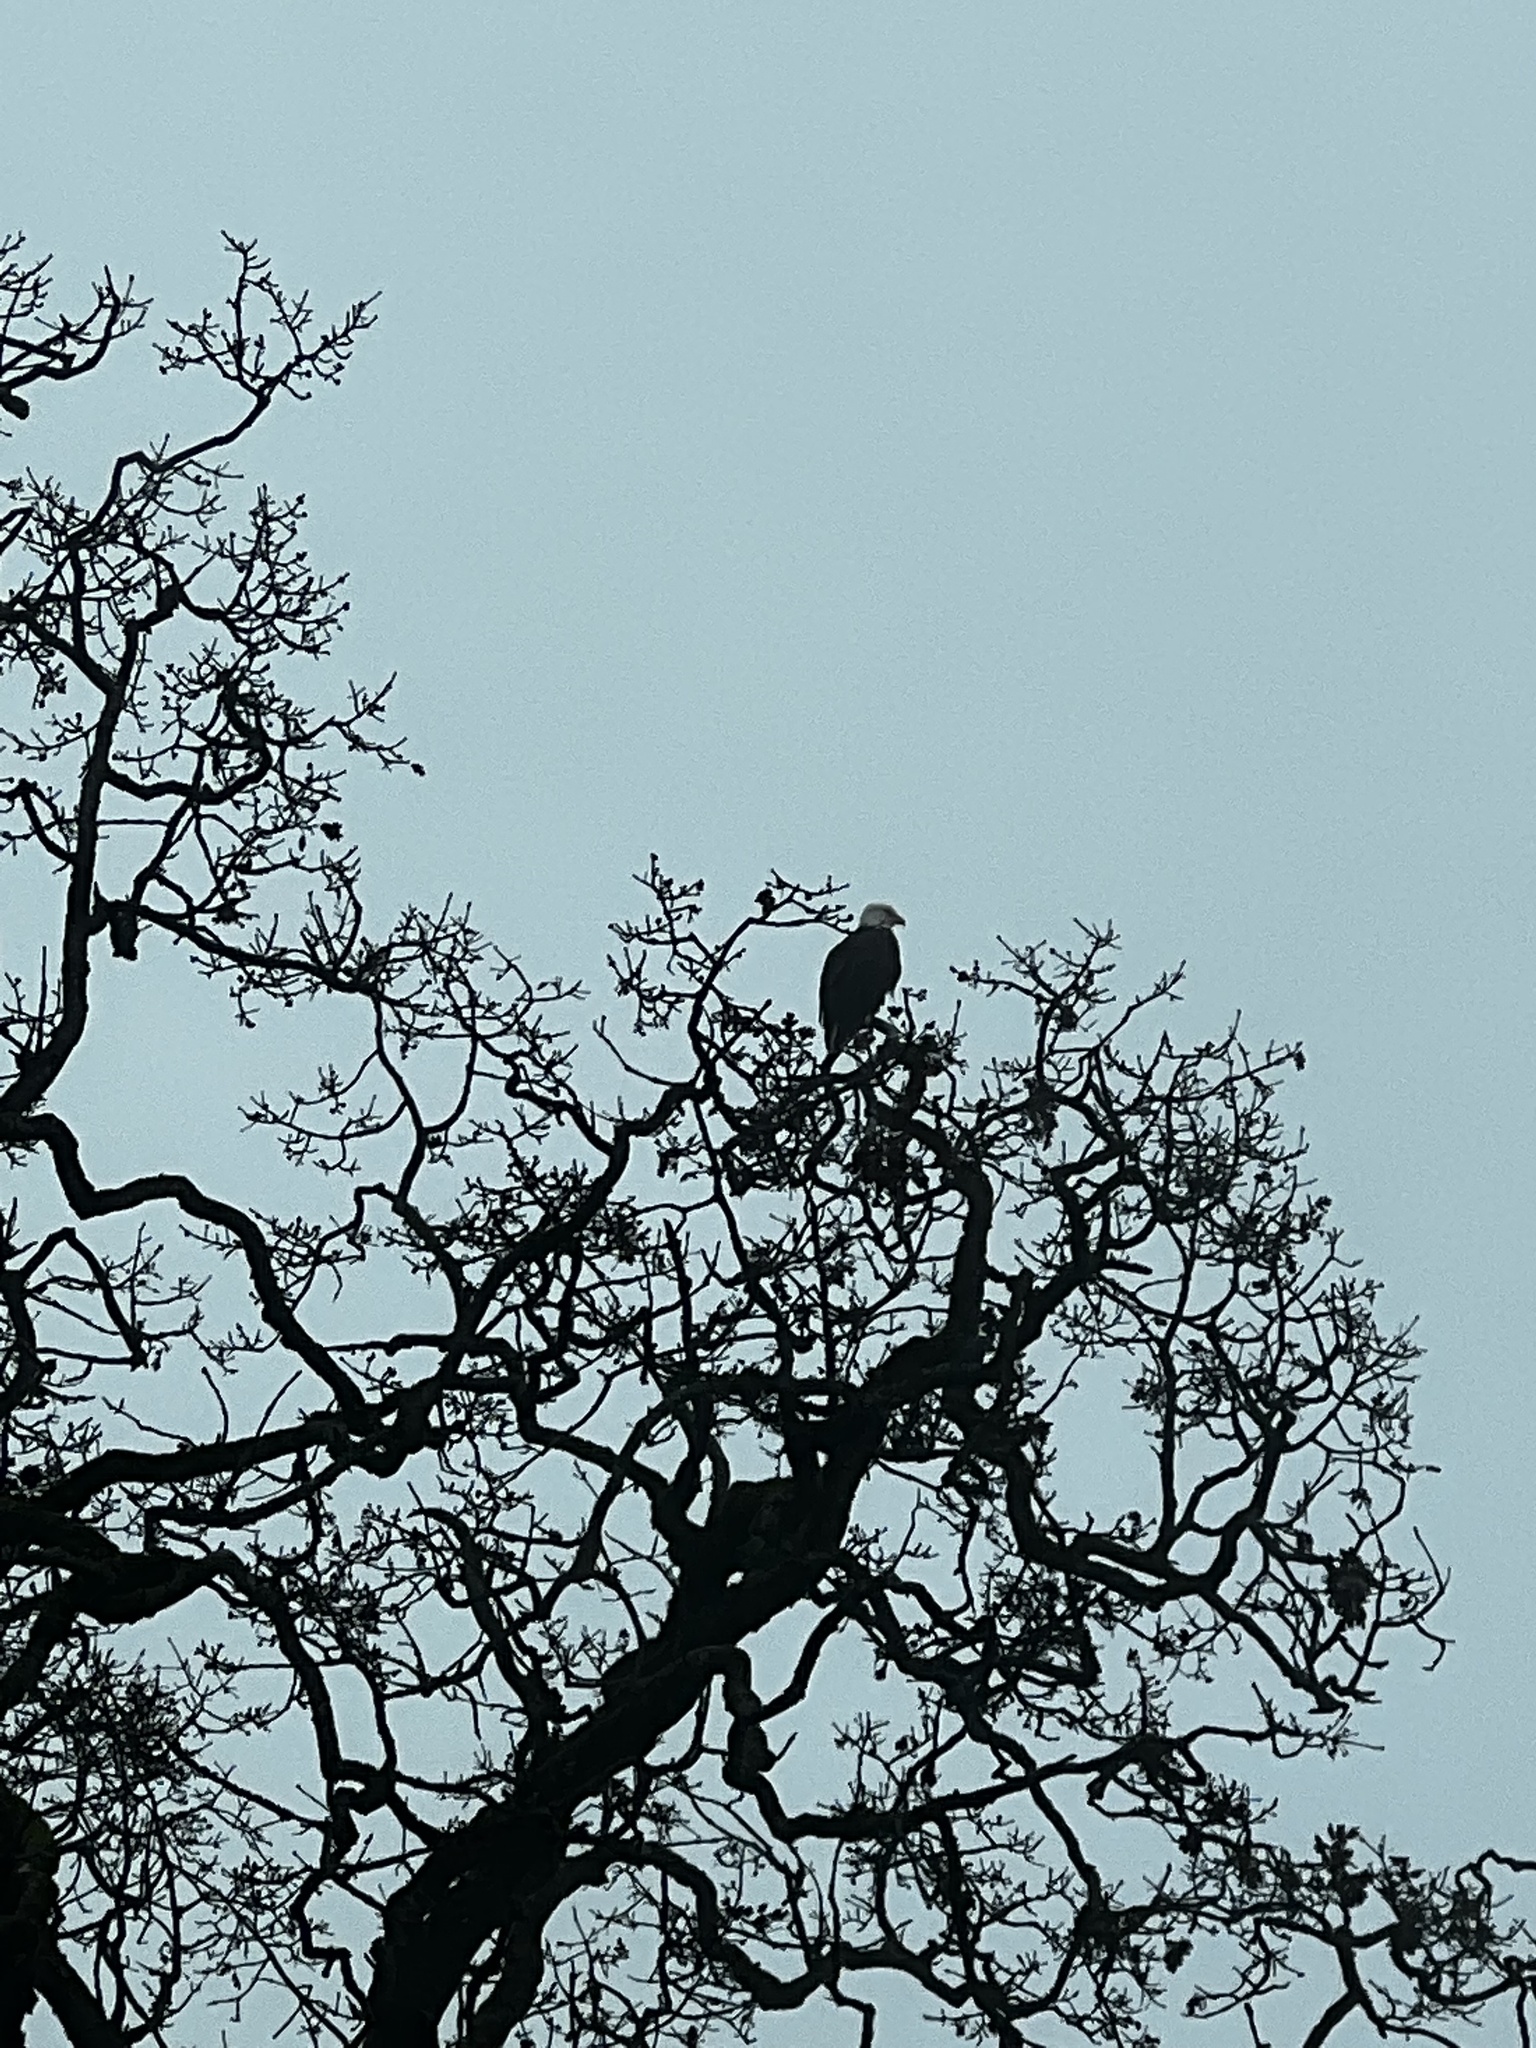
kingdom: Animalia
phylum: Chordata
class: Aves
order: Accipitriformes
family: Accipitridae
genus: Haliaeetus
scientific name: Haliaeetus leucocephalus
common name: Bald eagle
